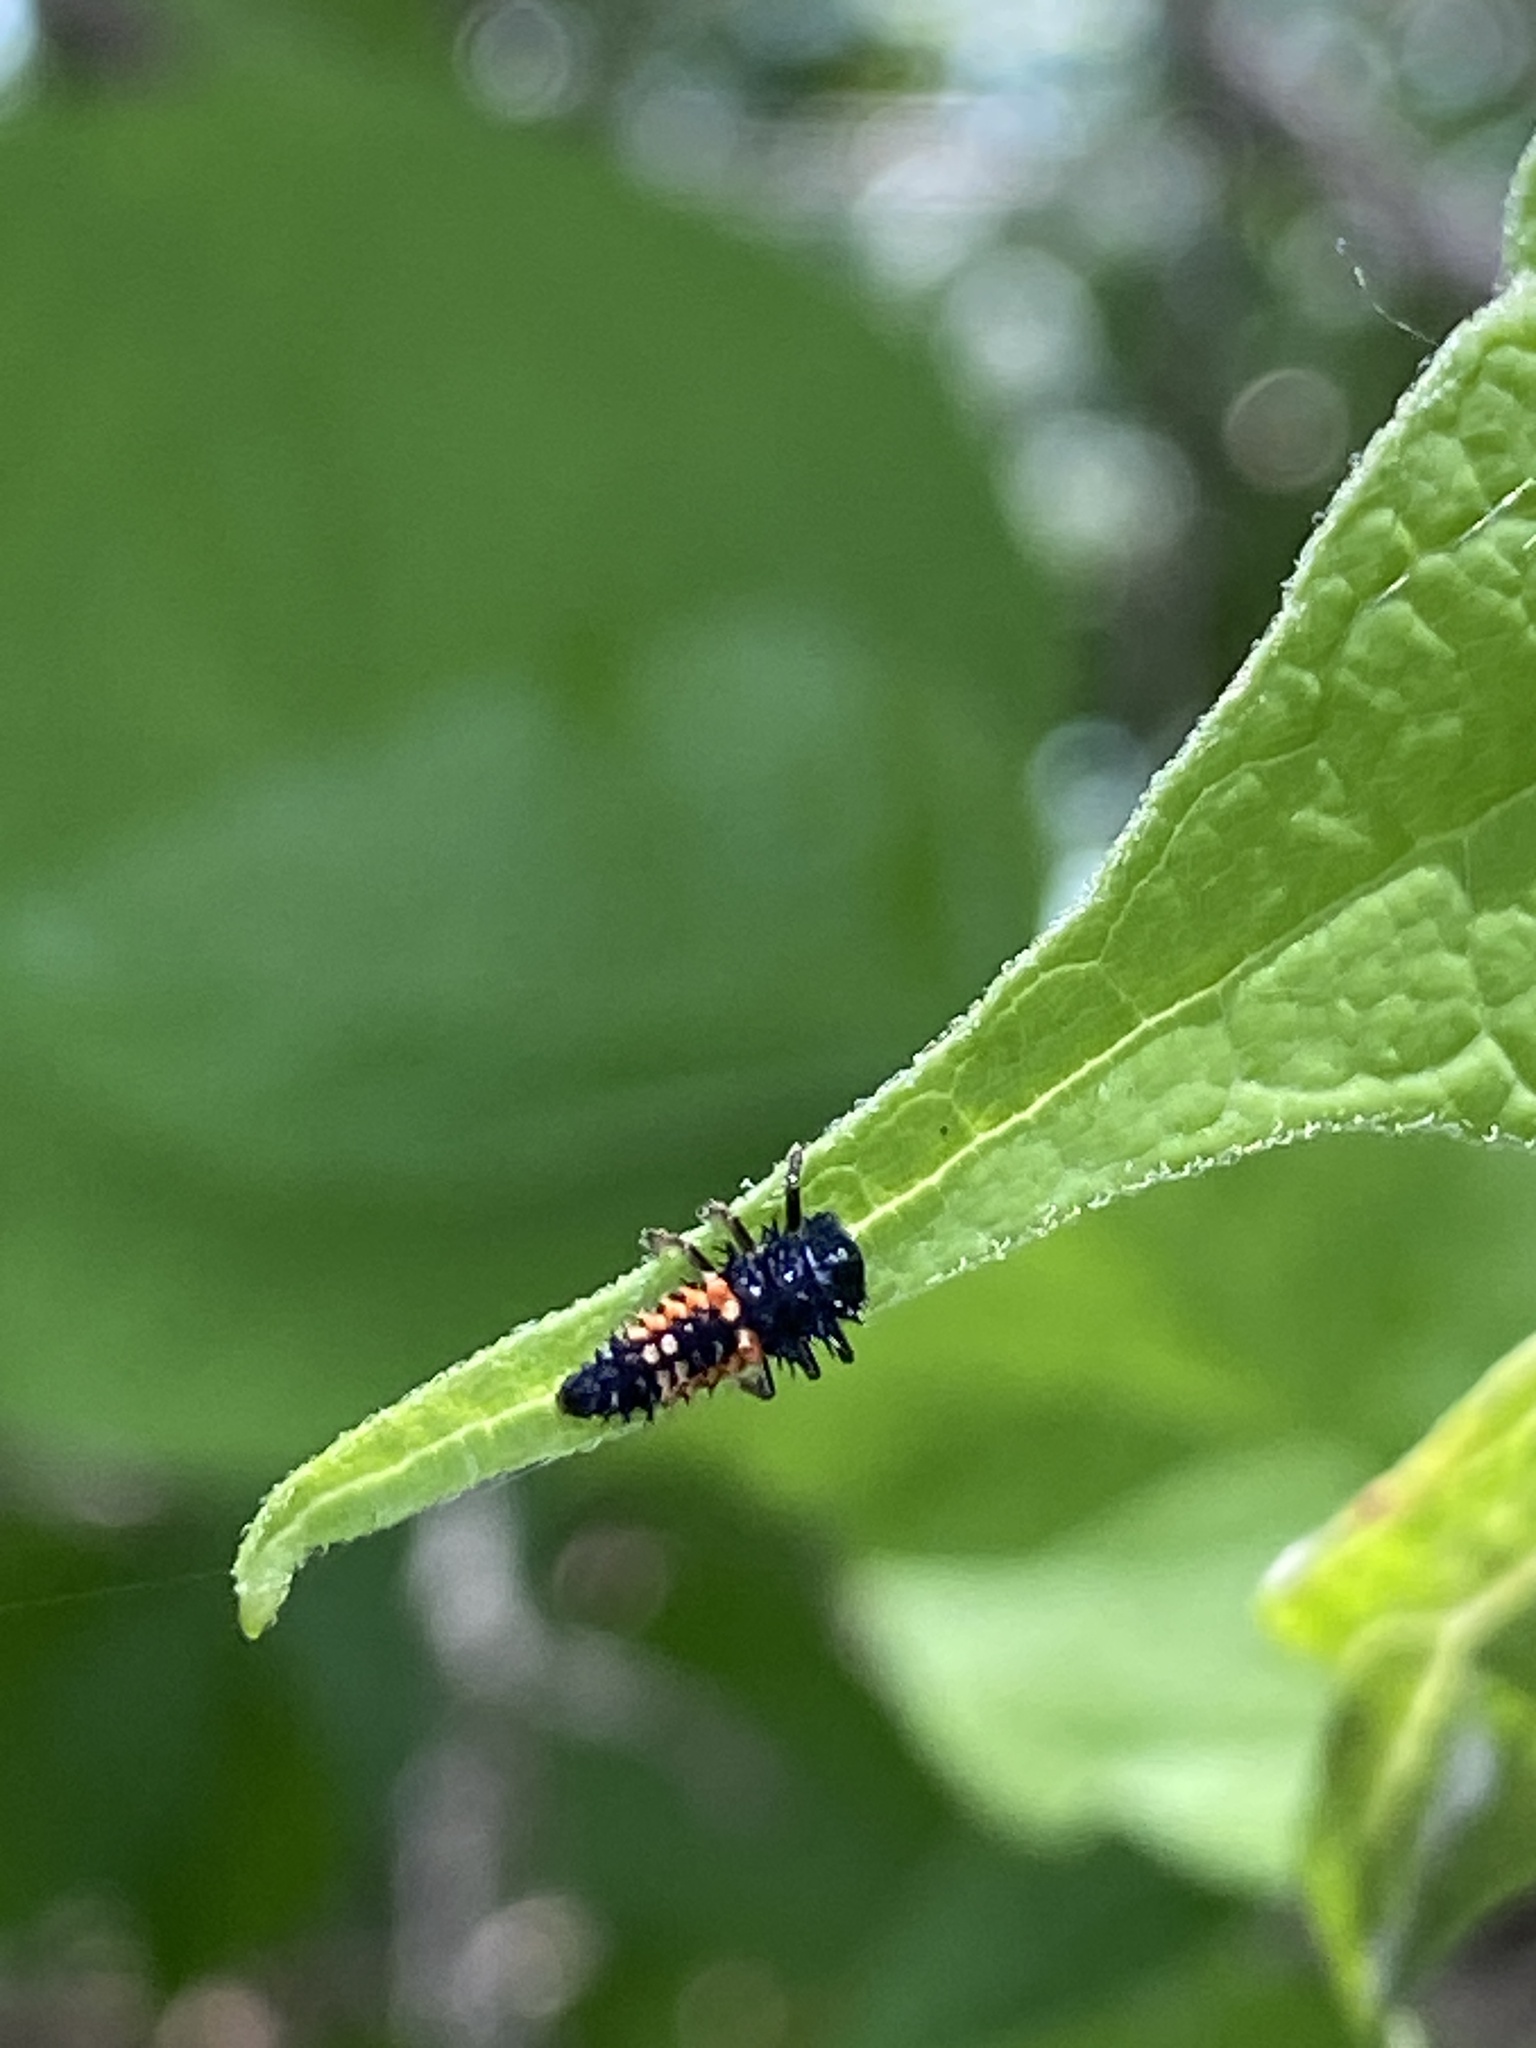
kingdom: Animalia
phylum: Arthropoda
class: Insecta
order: Coleoptera
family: Coccinellidae
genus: Harmonia
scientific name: Harmonia axyridis
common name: Harlequin ladybird
